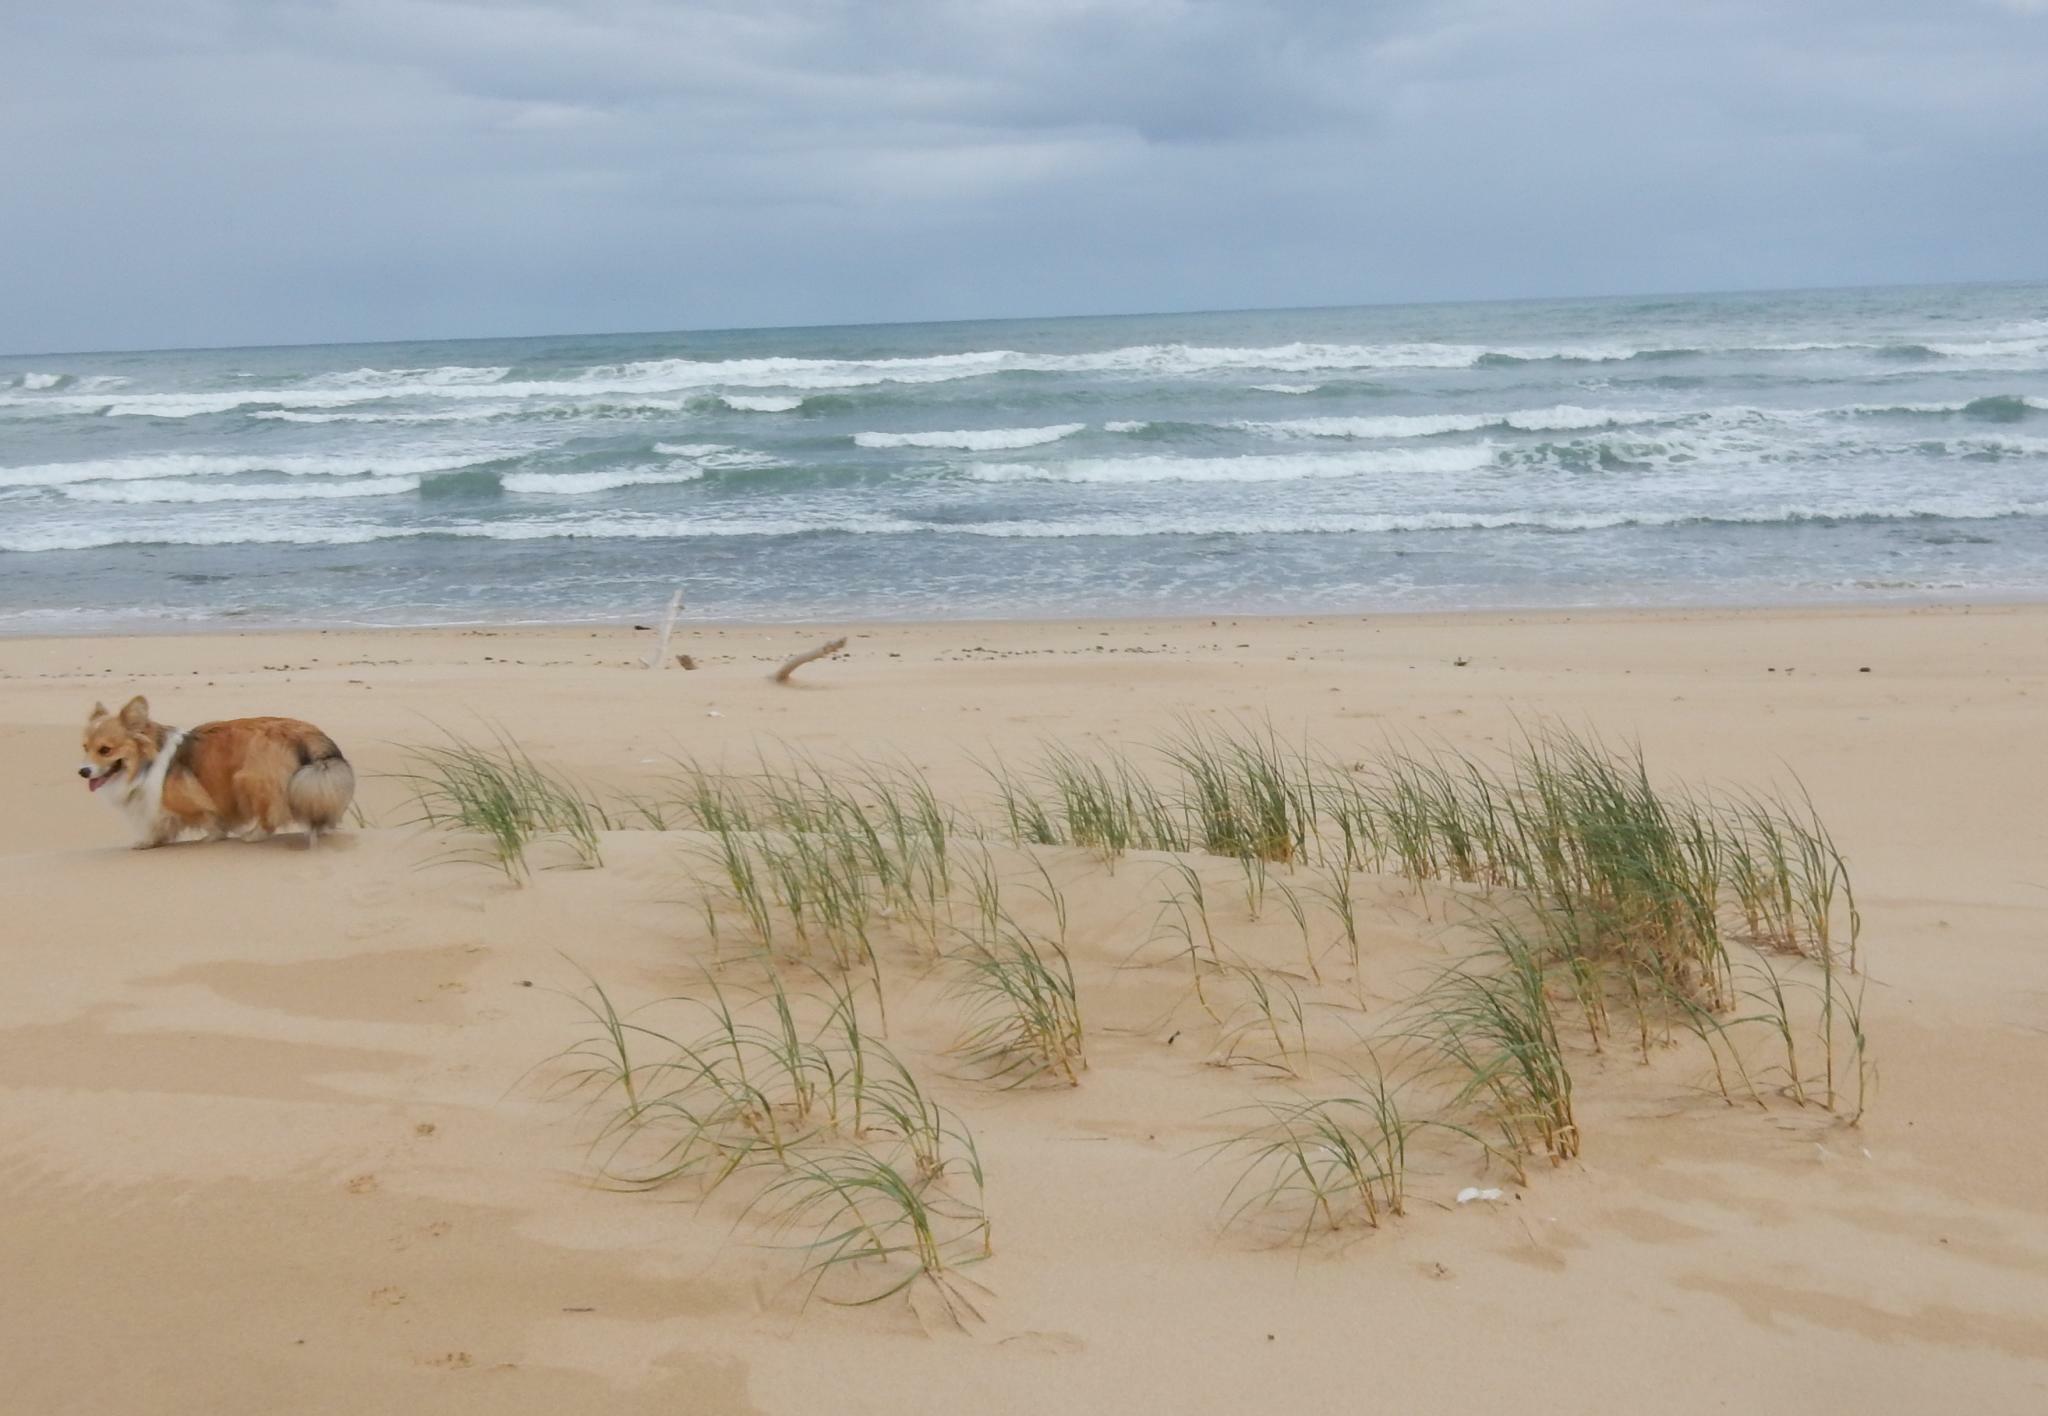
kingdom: Plantae
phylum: Tracheophyta
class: Liliopsida
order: Poales
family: Poaceae
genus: Thinopyrum
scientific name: Thinopyrum distichum
